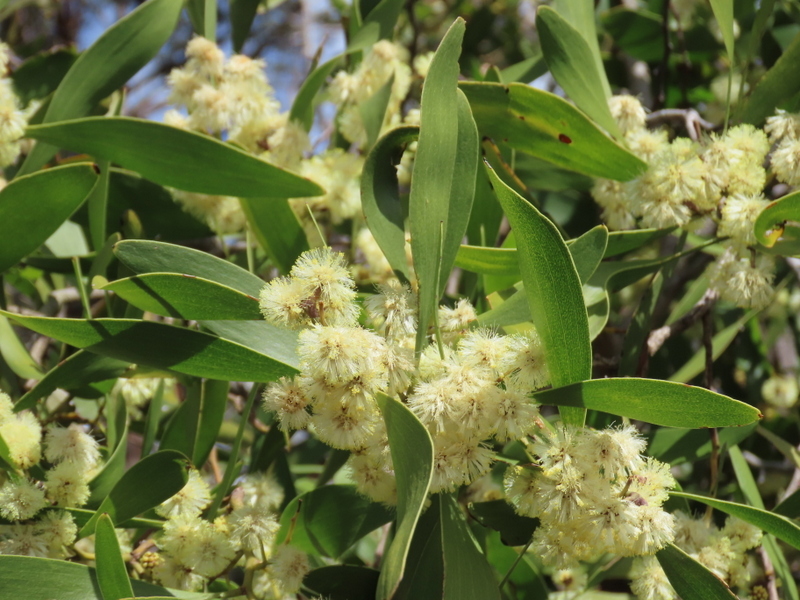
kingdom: Plantae
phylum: Tracheophyta
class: Magnoliopsida
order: Fabales
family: Fabaceae
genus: Acacia
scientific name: Acacia melanoxylon
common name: Blackwood
